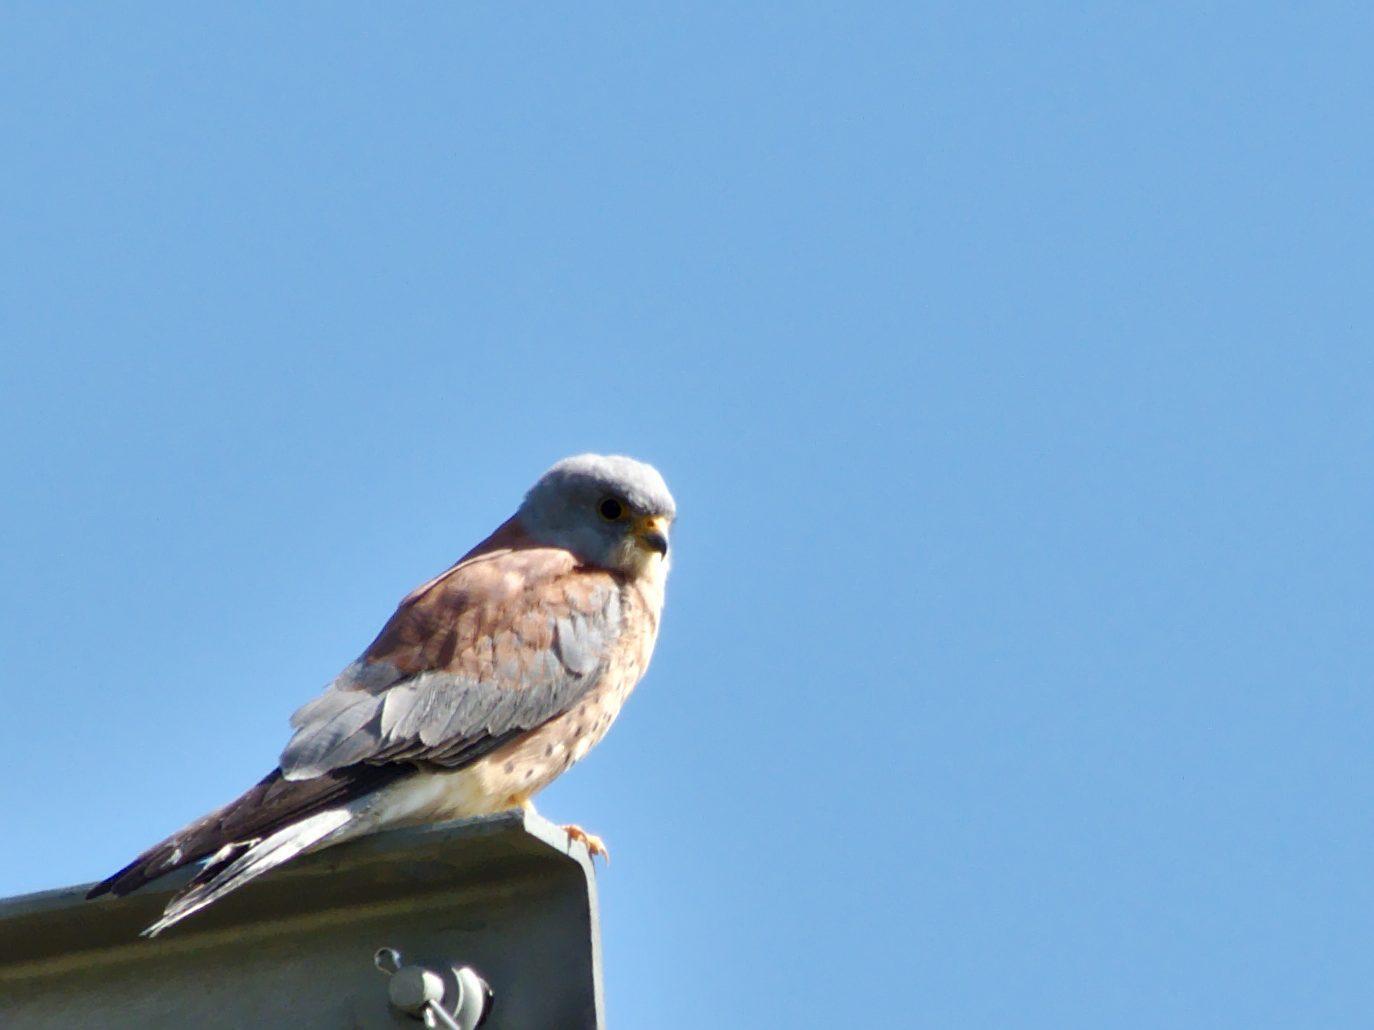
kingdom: Animalia
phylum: Chordata
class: Aves
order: Falconiformes
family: Falconidae
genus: Falco
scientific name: Falco naumanni
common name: Lesser kestrel
